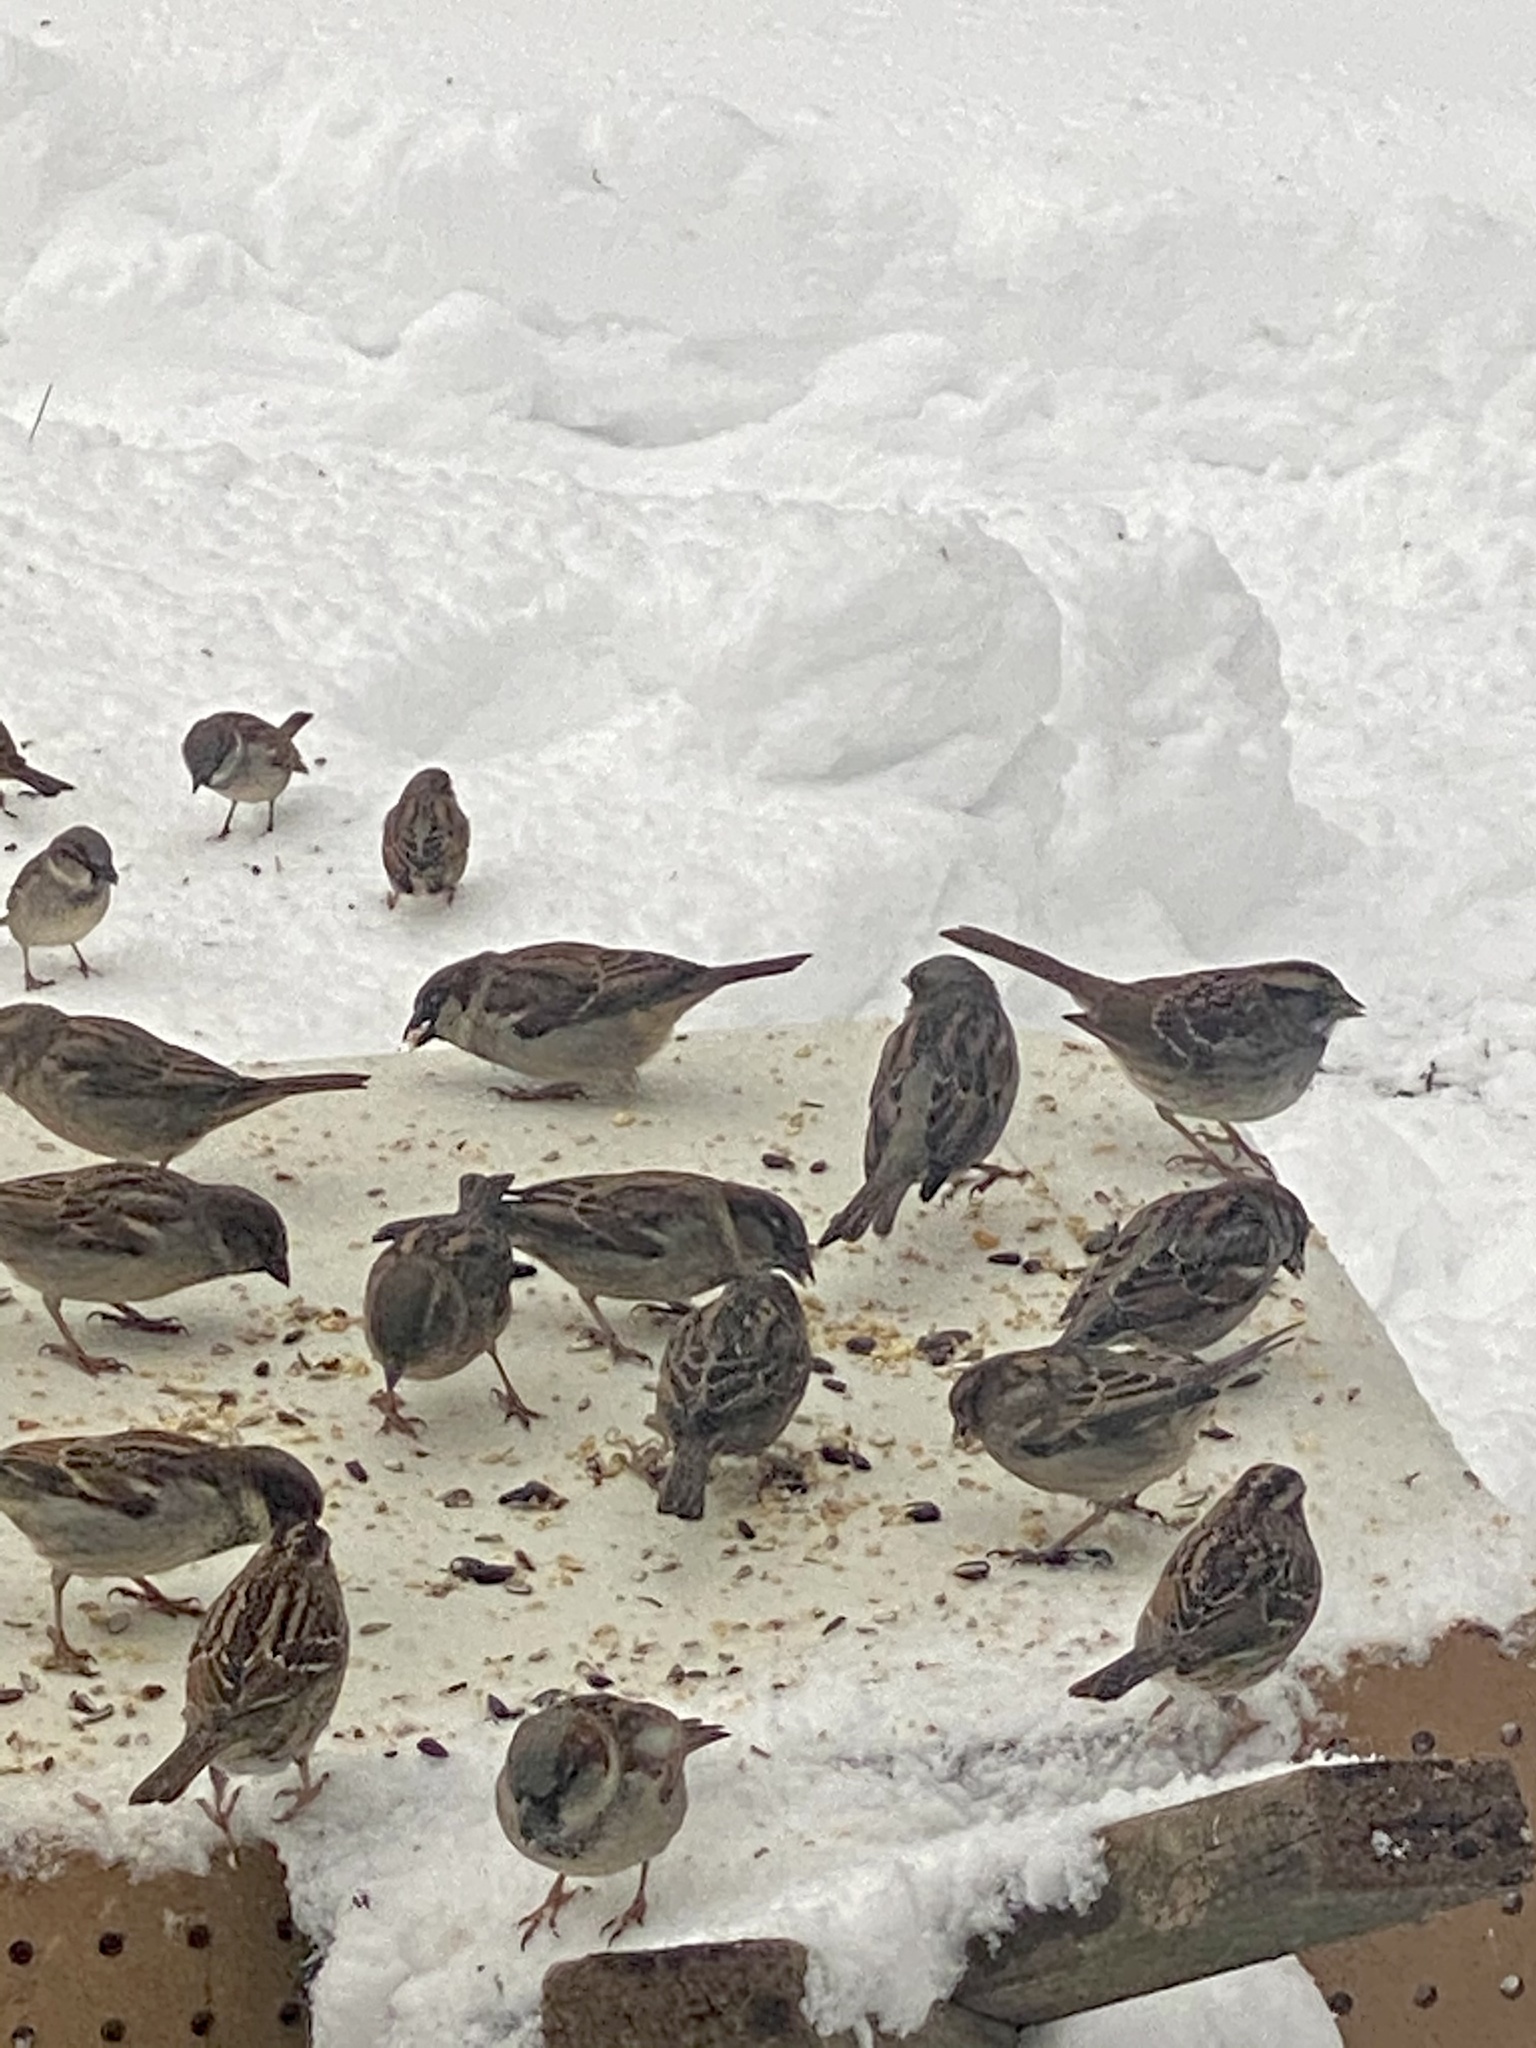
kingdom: Animalia
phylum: Chordata
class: Aves
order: Passeriformes
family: Passeridae
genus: Passer
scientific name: Passer domesticus
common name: House sparrow
